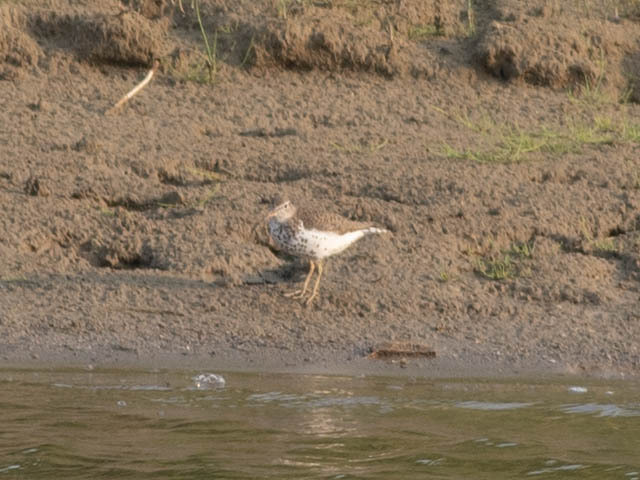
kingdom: Animalia
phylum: Chordata
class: Aves
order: Charadriiformes
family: Scolopacidae
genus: Actitis
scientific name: Actitis macularius
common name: Spotted sandpiper
